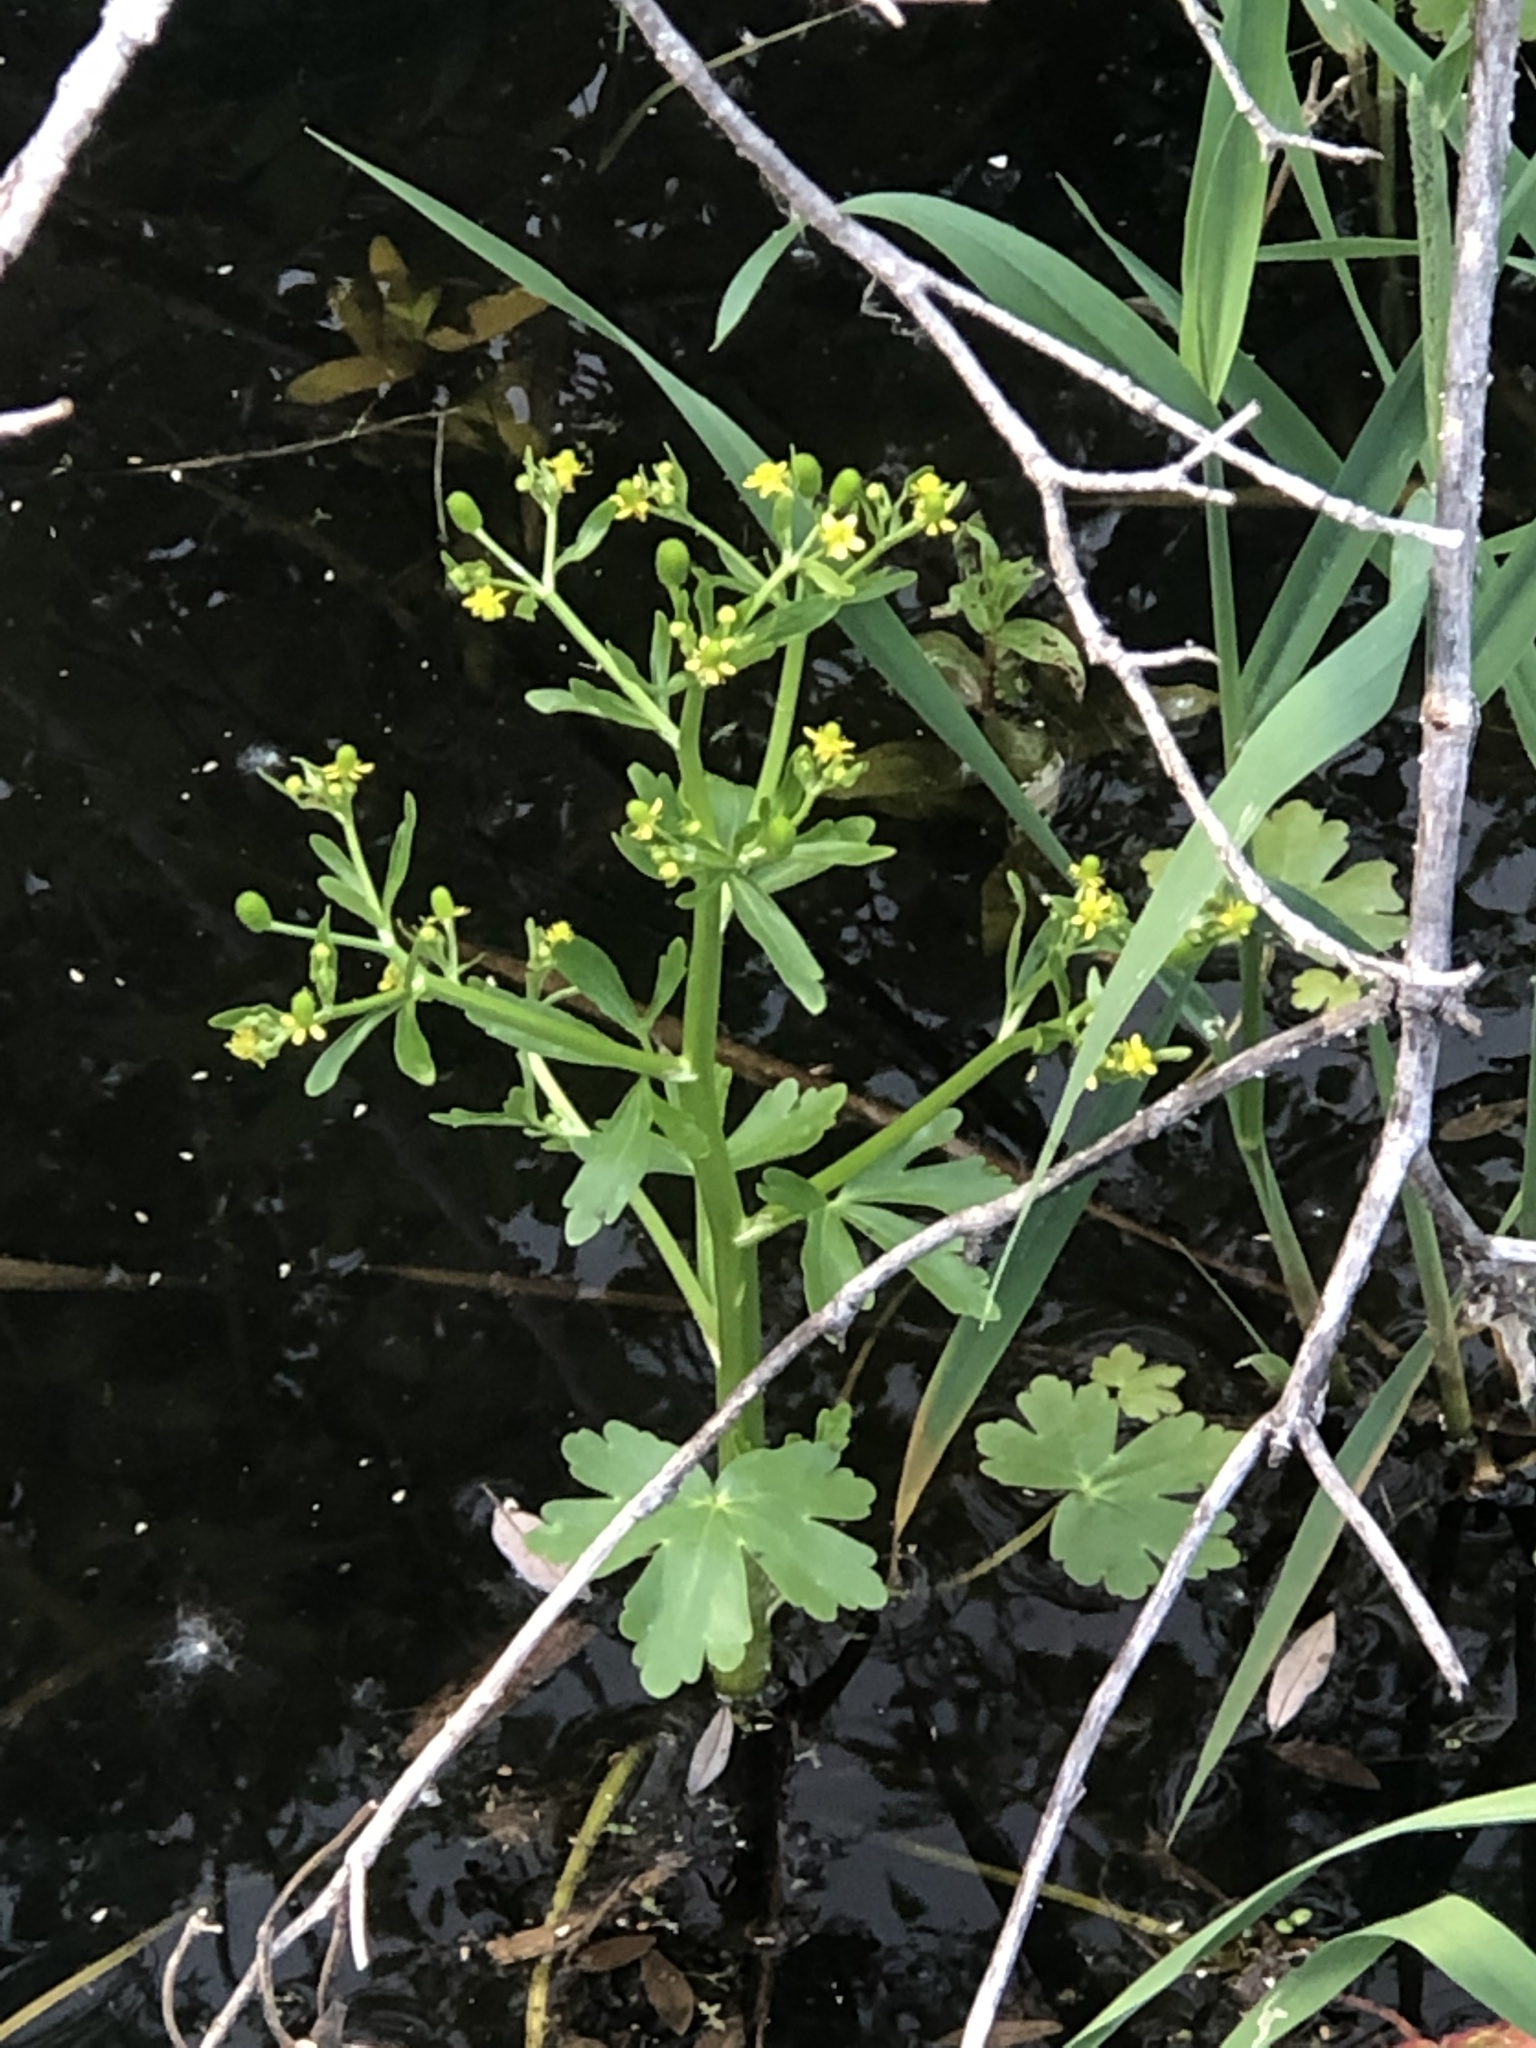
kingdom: Plantae
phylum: Tracheophyta
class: Magnoliopsida
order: Ranunculales
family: Ranunculaceae
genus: Ranunculus
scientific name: Ranunculus sceleratus
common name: Celery-leaved buttercup
